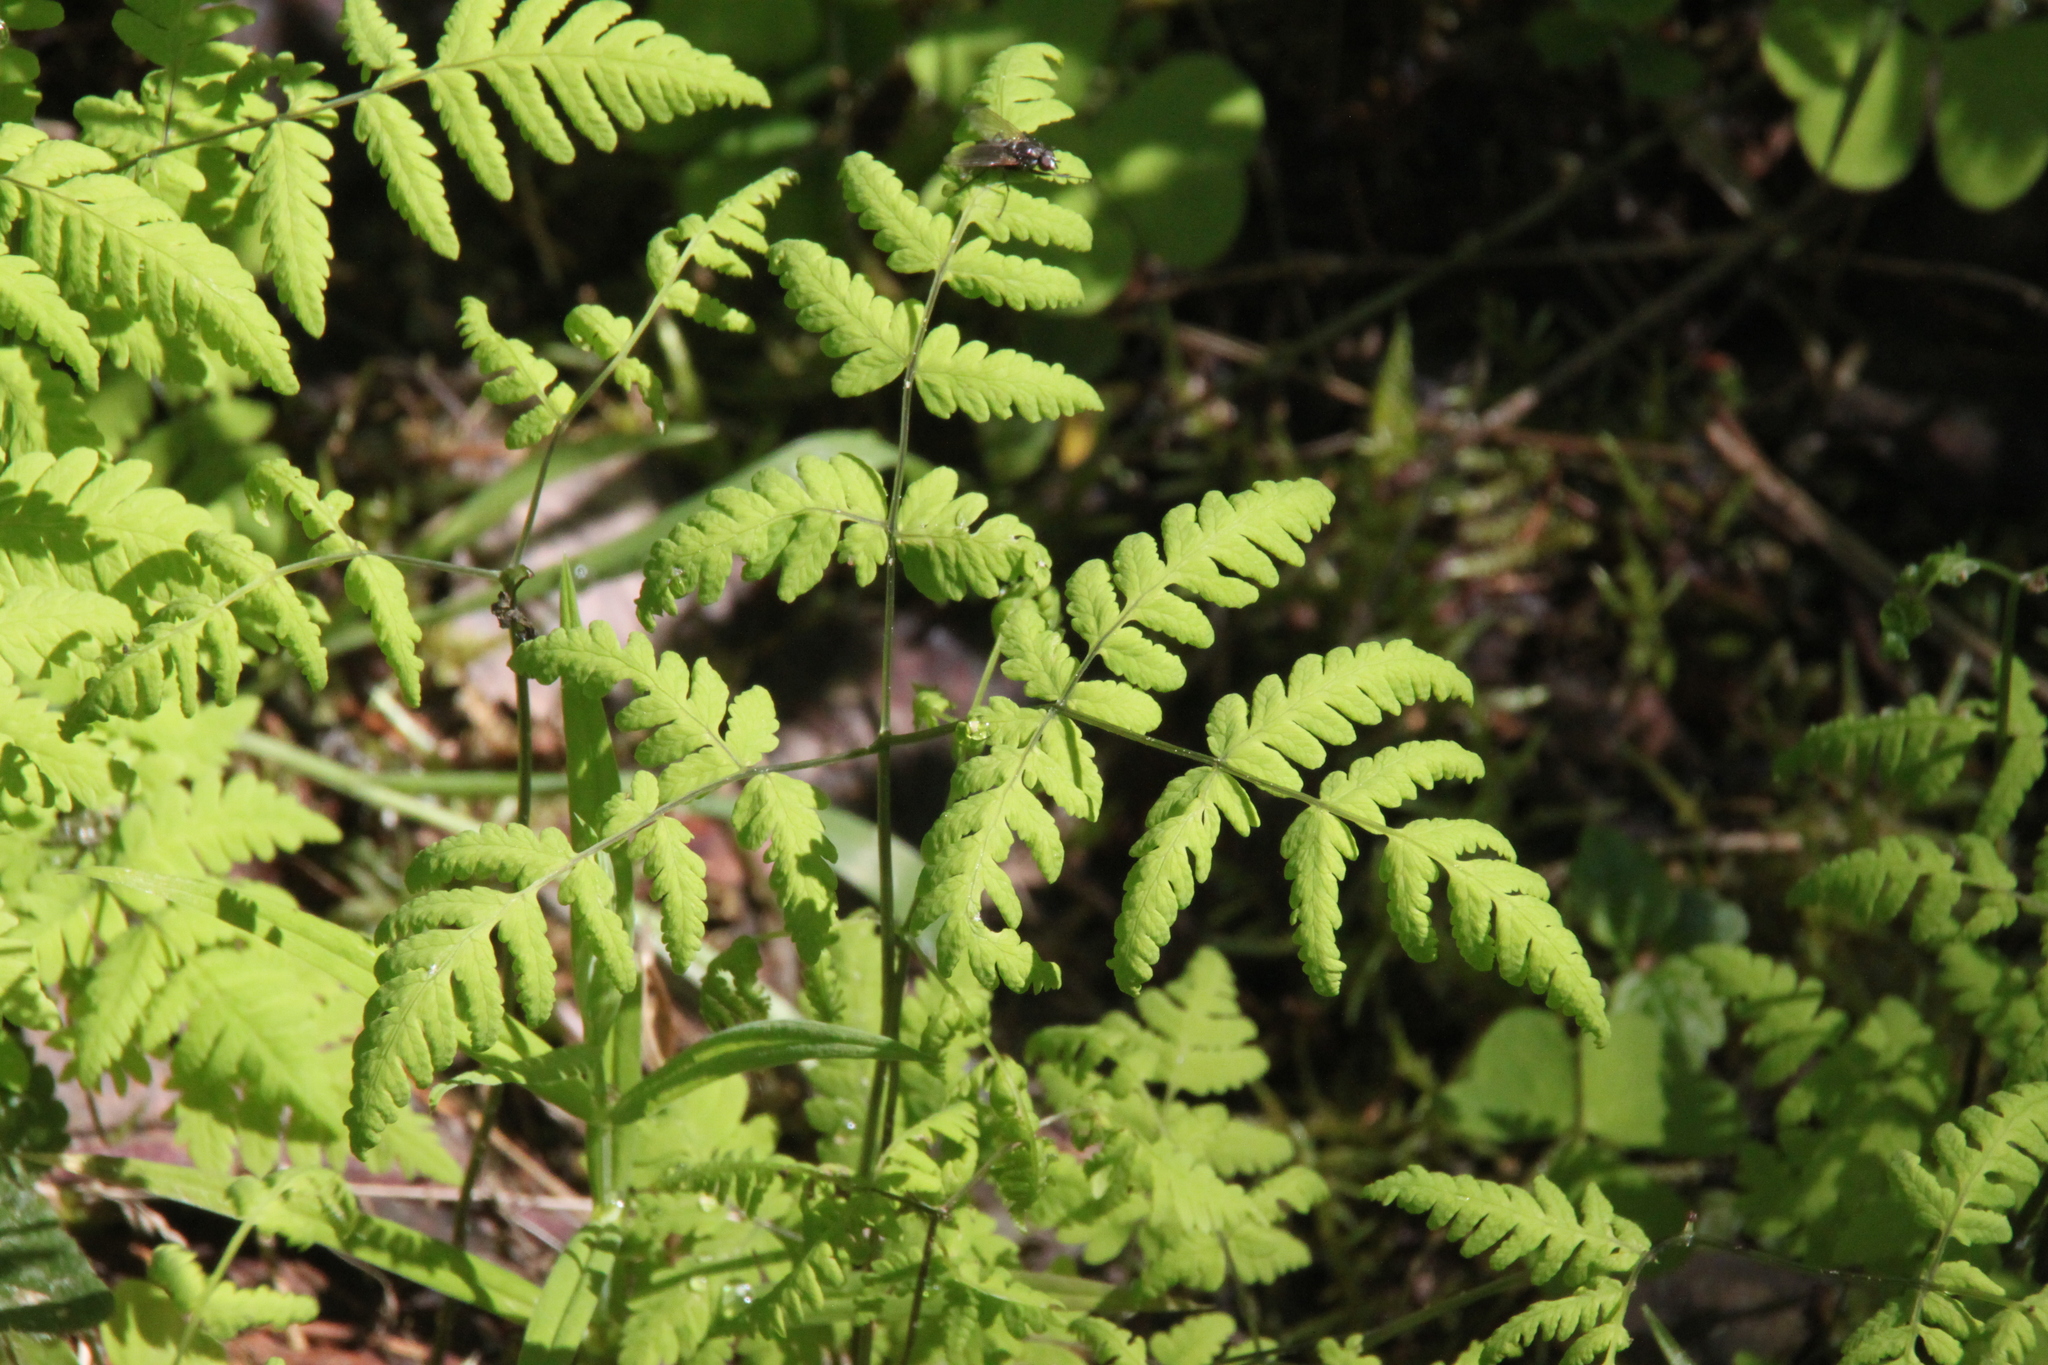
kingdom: Plantae
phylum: Tracheophyta
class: Polypodiopsida
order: Polypodiales
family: Cystopteridaceae
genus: Gymnocarpium
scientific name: Gymnocarpium dryopteris
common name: Oak fern
